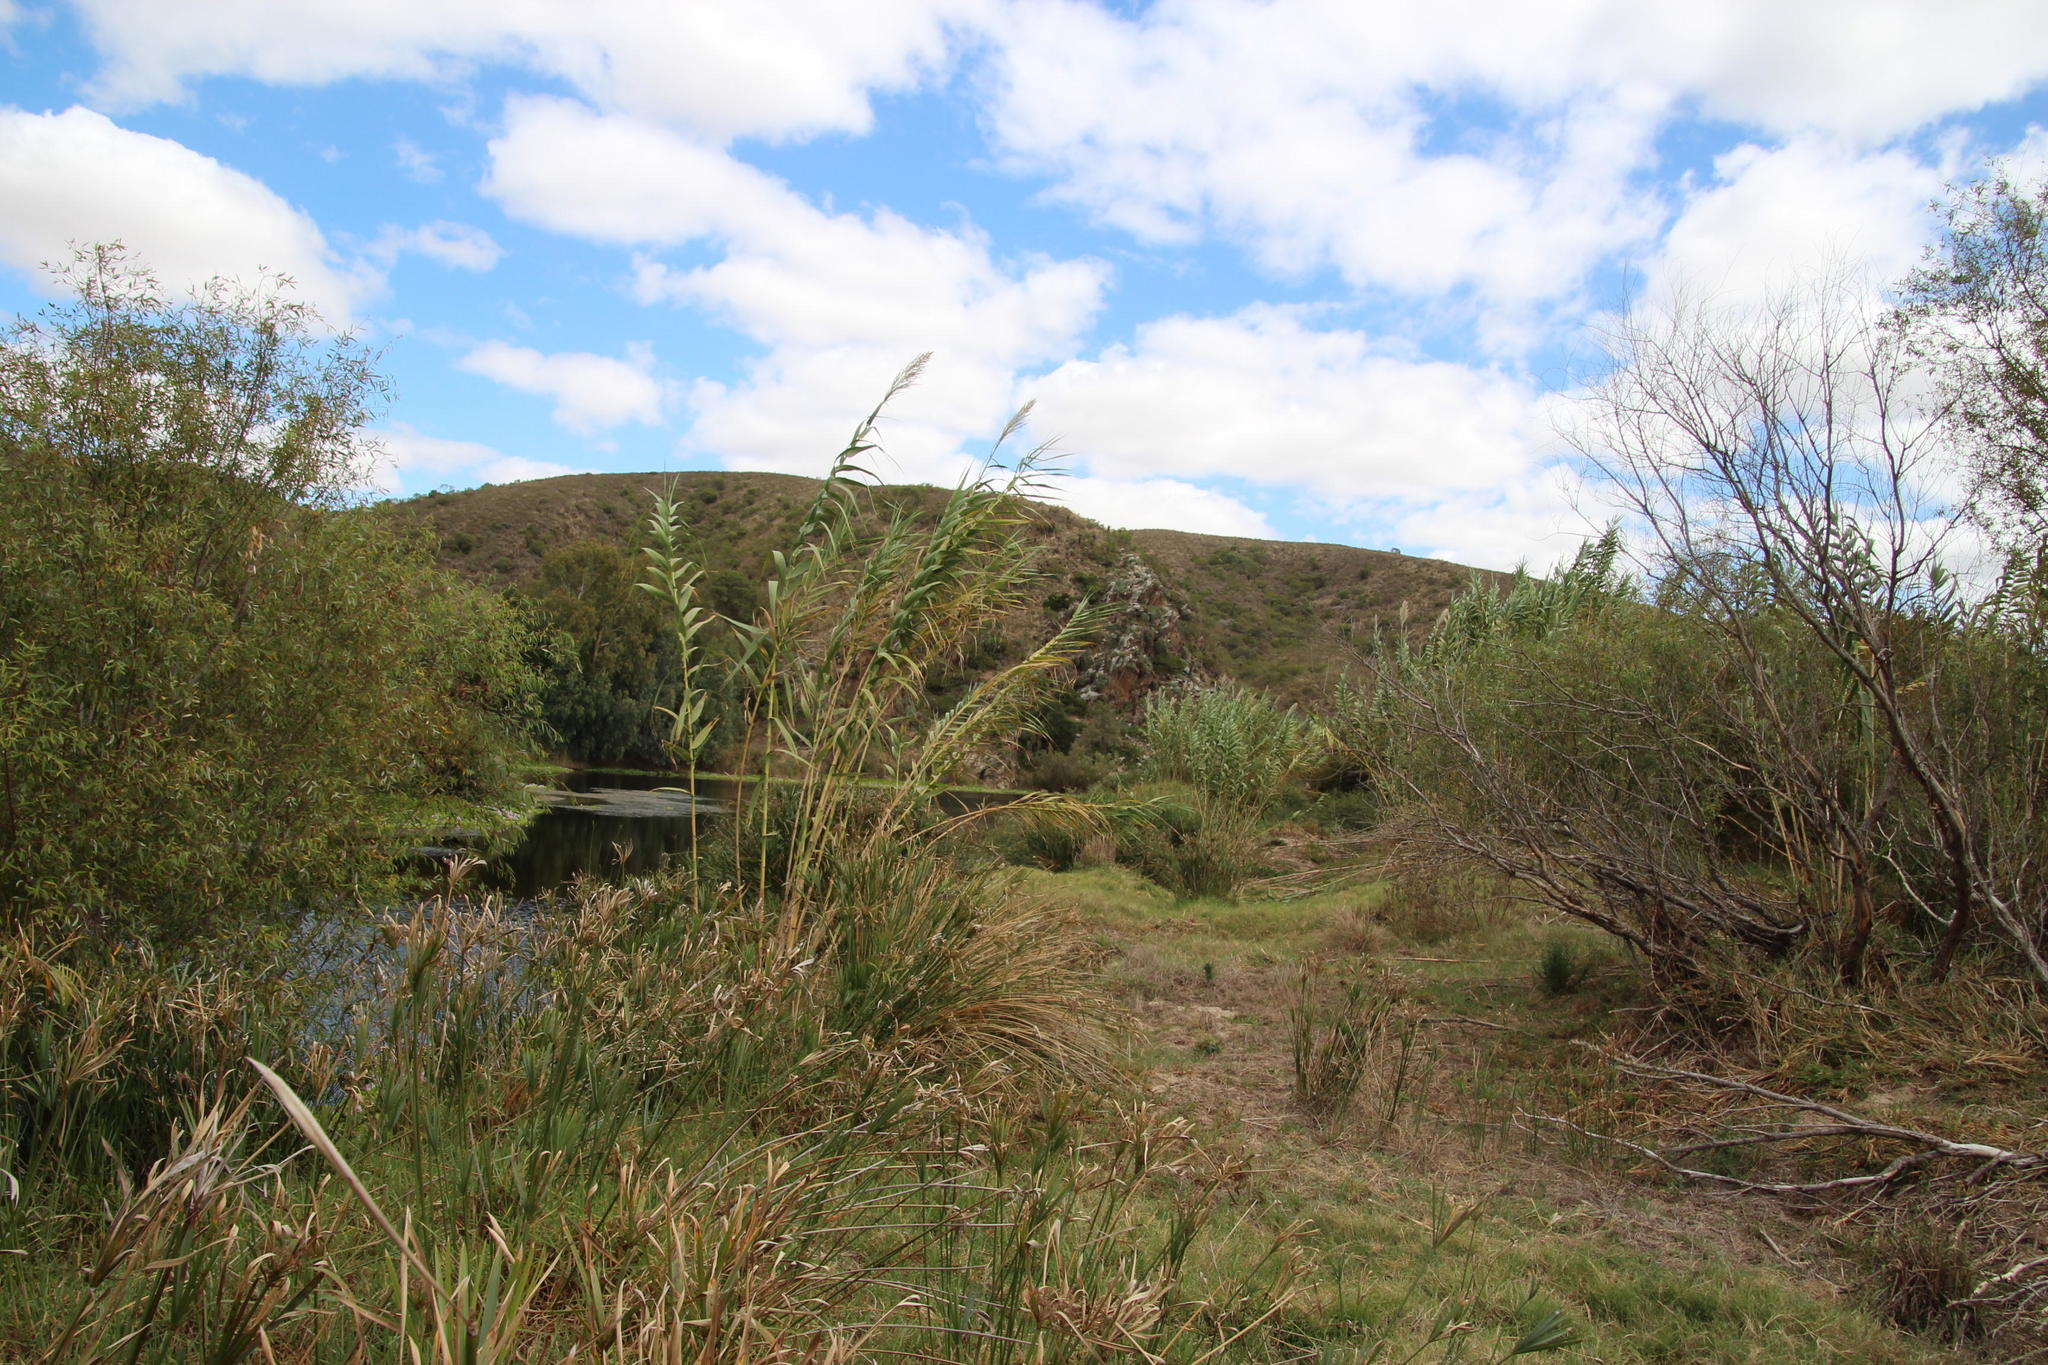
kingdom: Plantae
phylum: Tracheophyta
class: Liliopsida
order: Poales
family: Poaceae
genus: Arundo
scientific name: Arundo donax
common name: Giant reed
